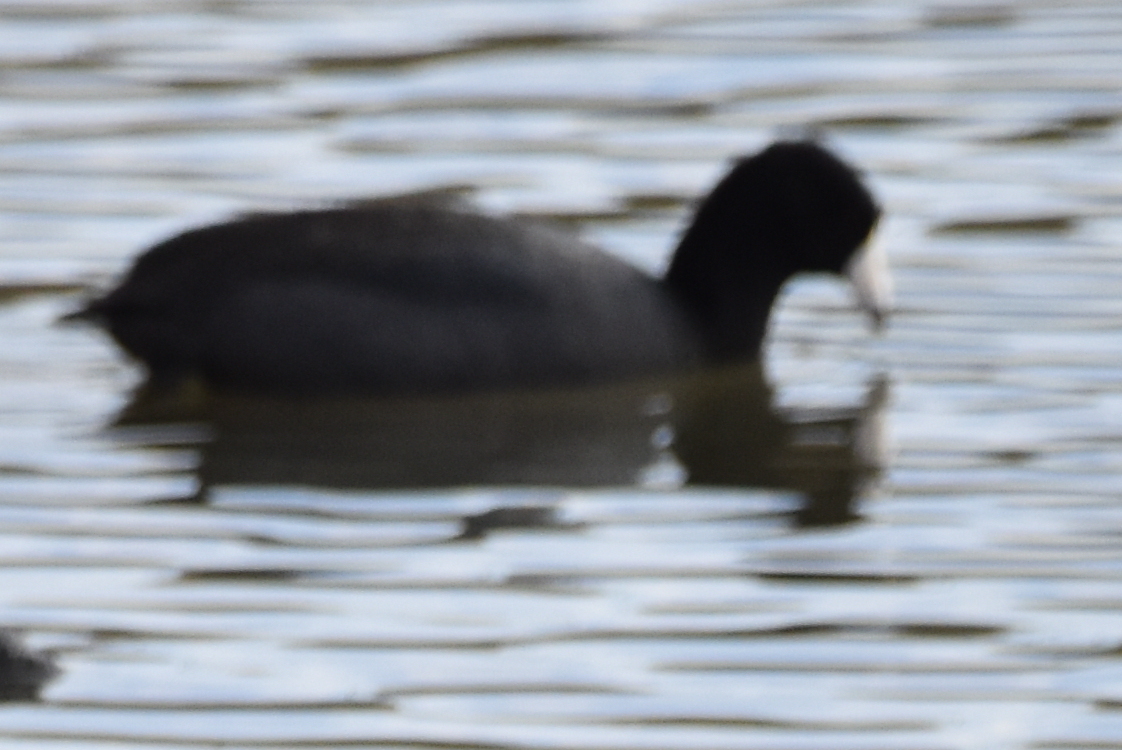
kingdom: Animalia
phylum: Chordata
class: Aves
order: Gruiformes
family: Rallidae
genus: Fulica
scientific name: Fulica americana
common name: American coot
